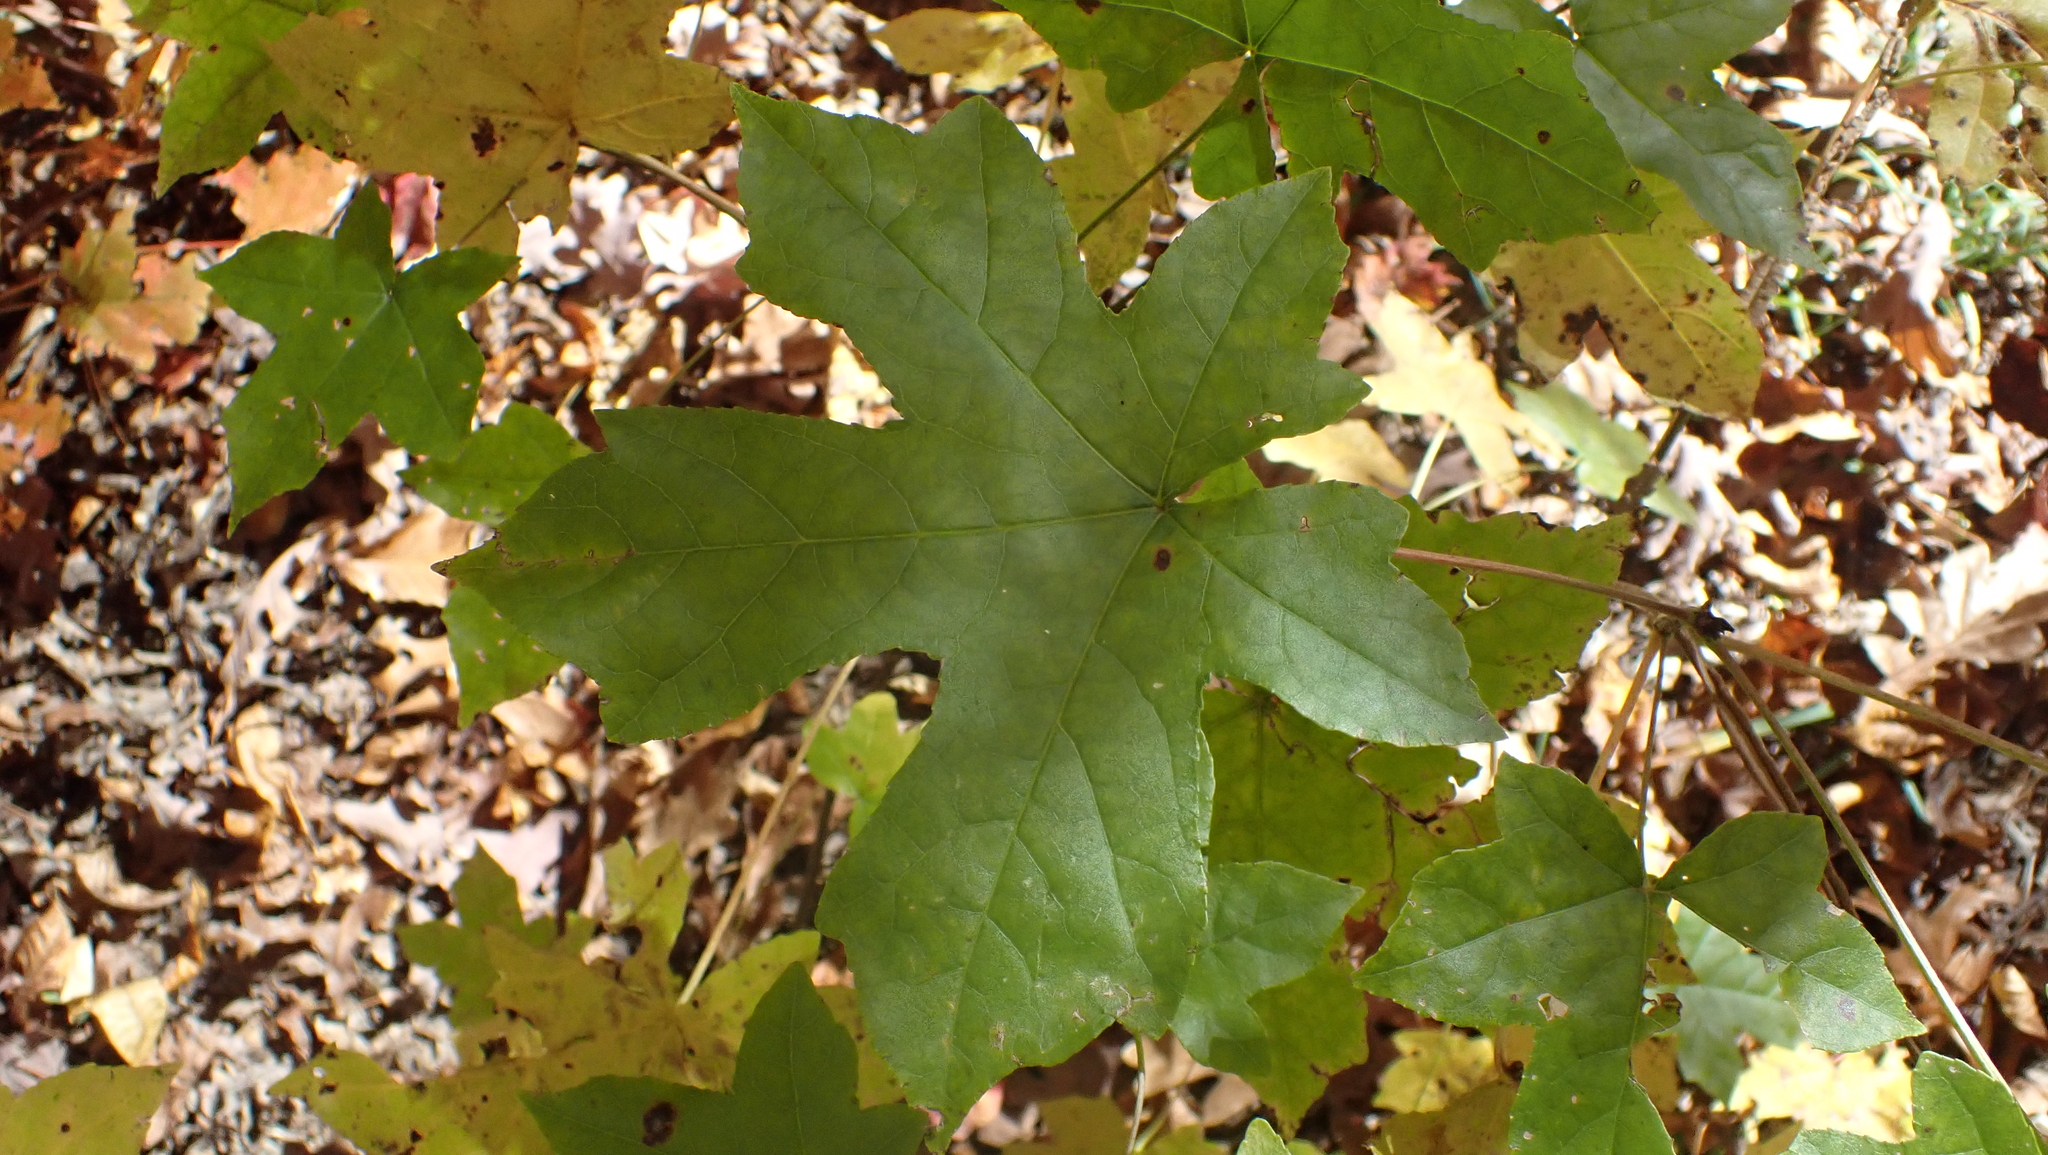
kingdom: Plantae
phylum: Tracheophyta
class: Magnoliopsida
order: Saxifragales
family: Altingiaceae
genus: Liquidambar
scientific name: Liquidambar styraciflua
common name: Sweet gum
